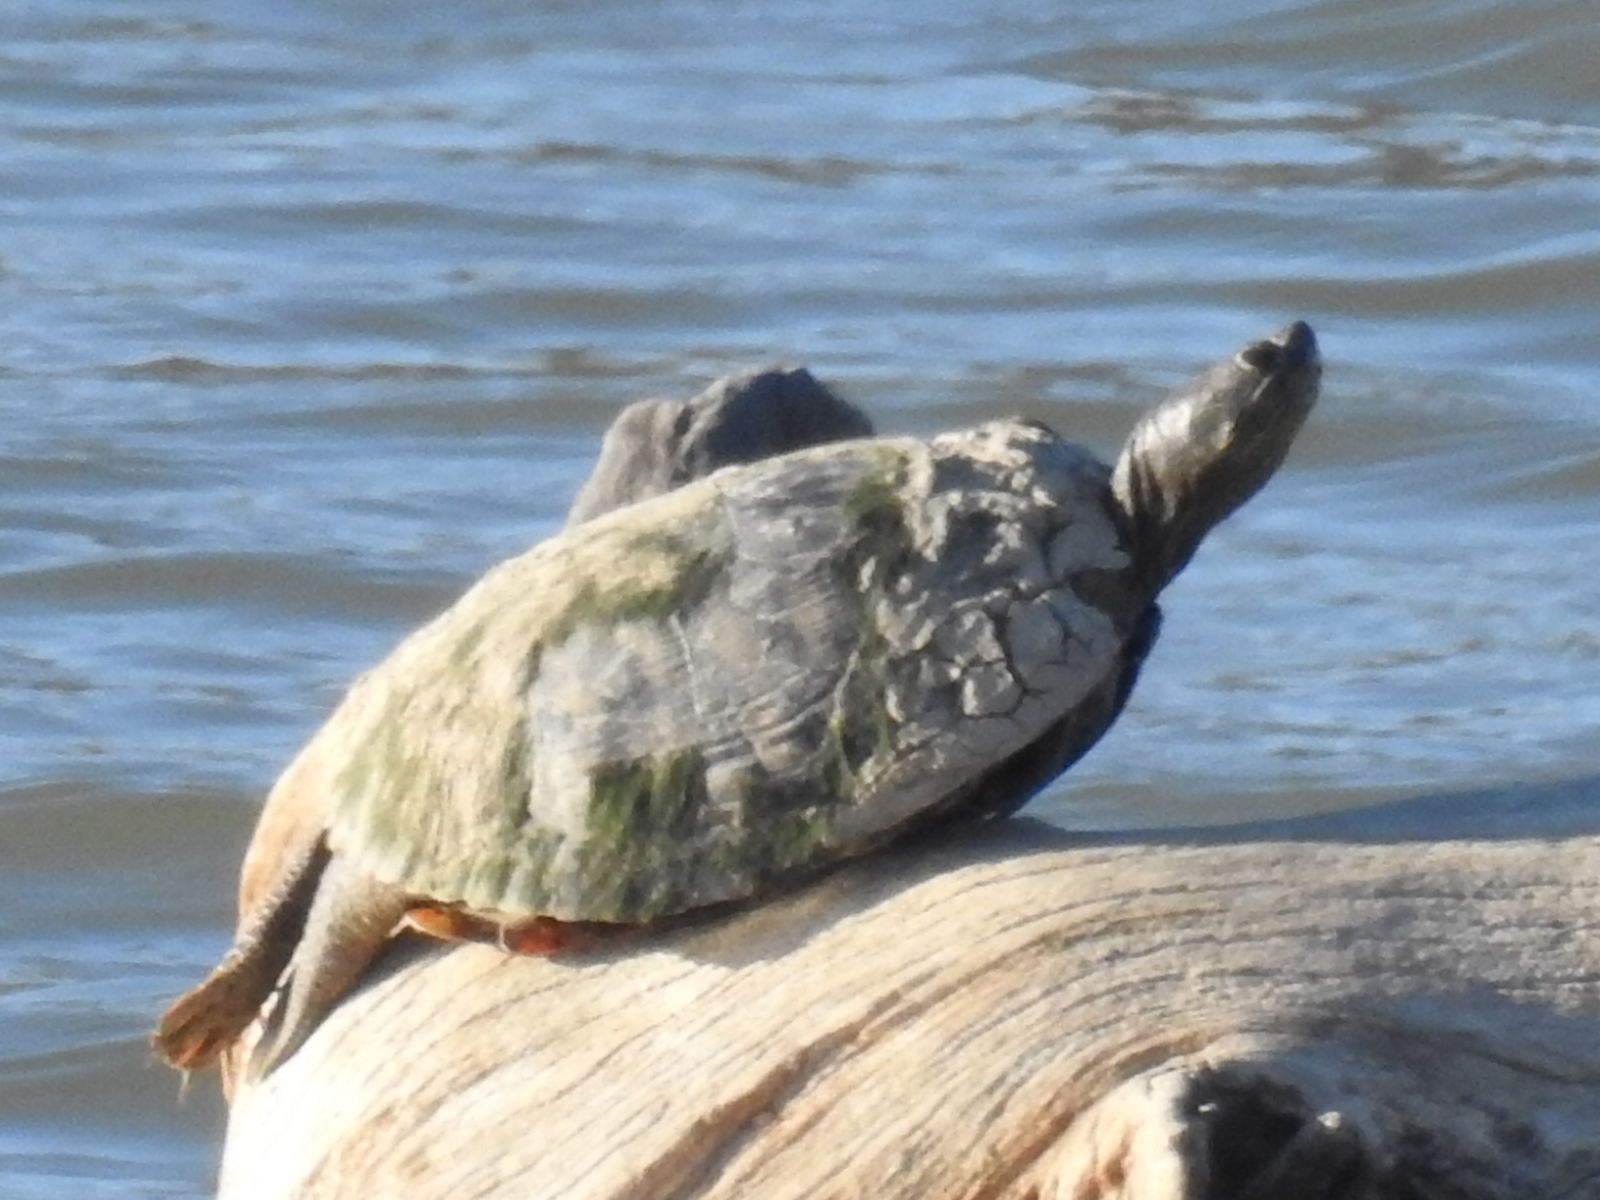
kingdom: Animalia
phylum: Chordata
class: Testudines
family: Emydidae
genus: Trachemys
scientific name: Trachemys scripta
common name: Slider
